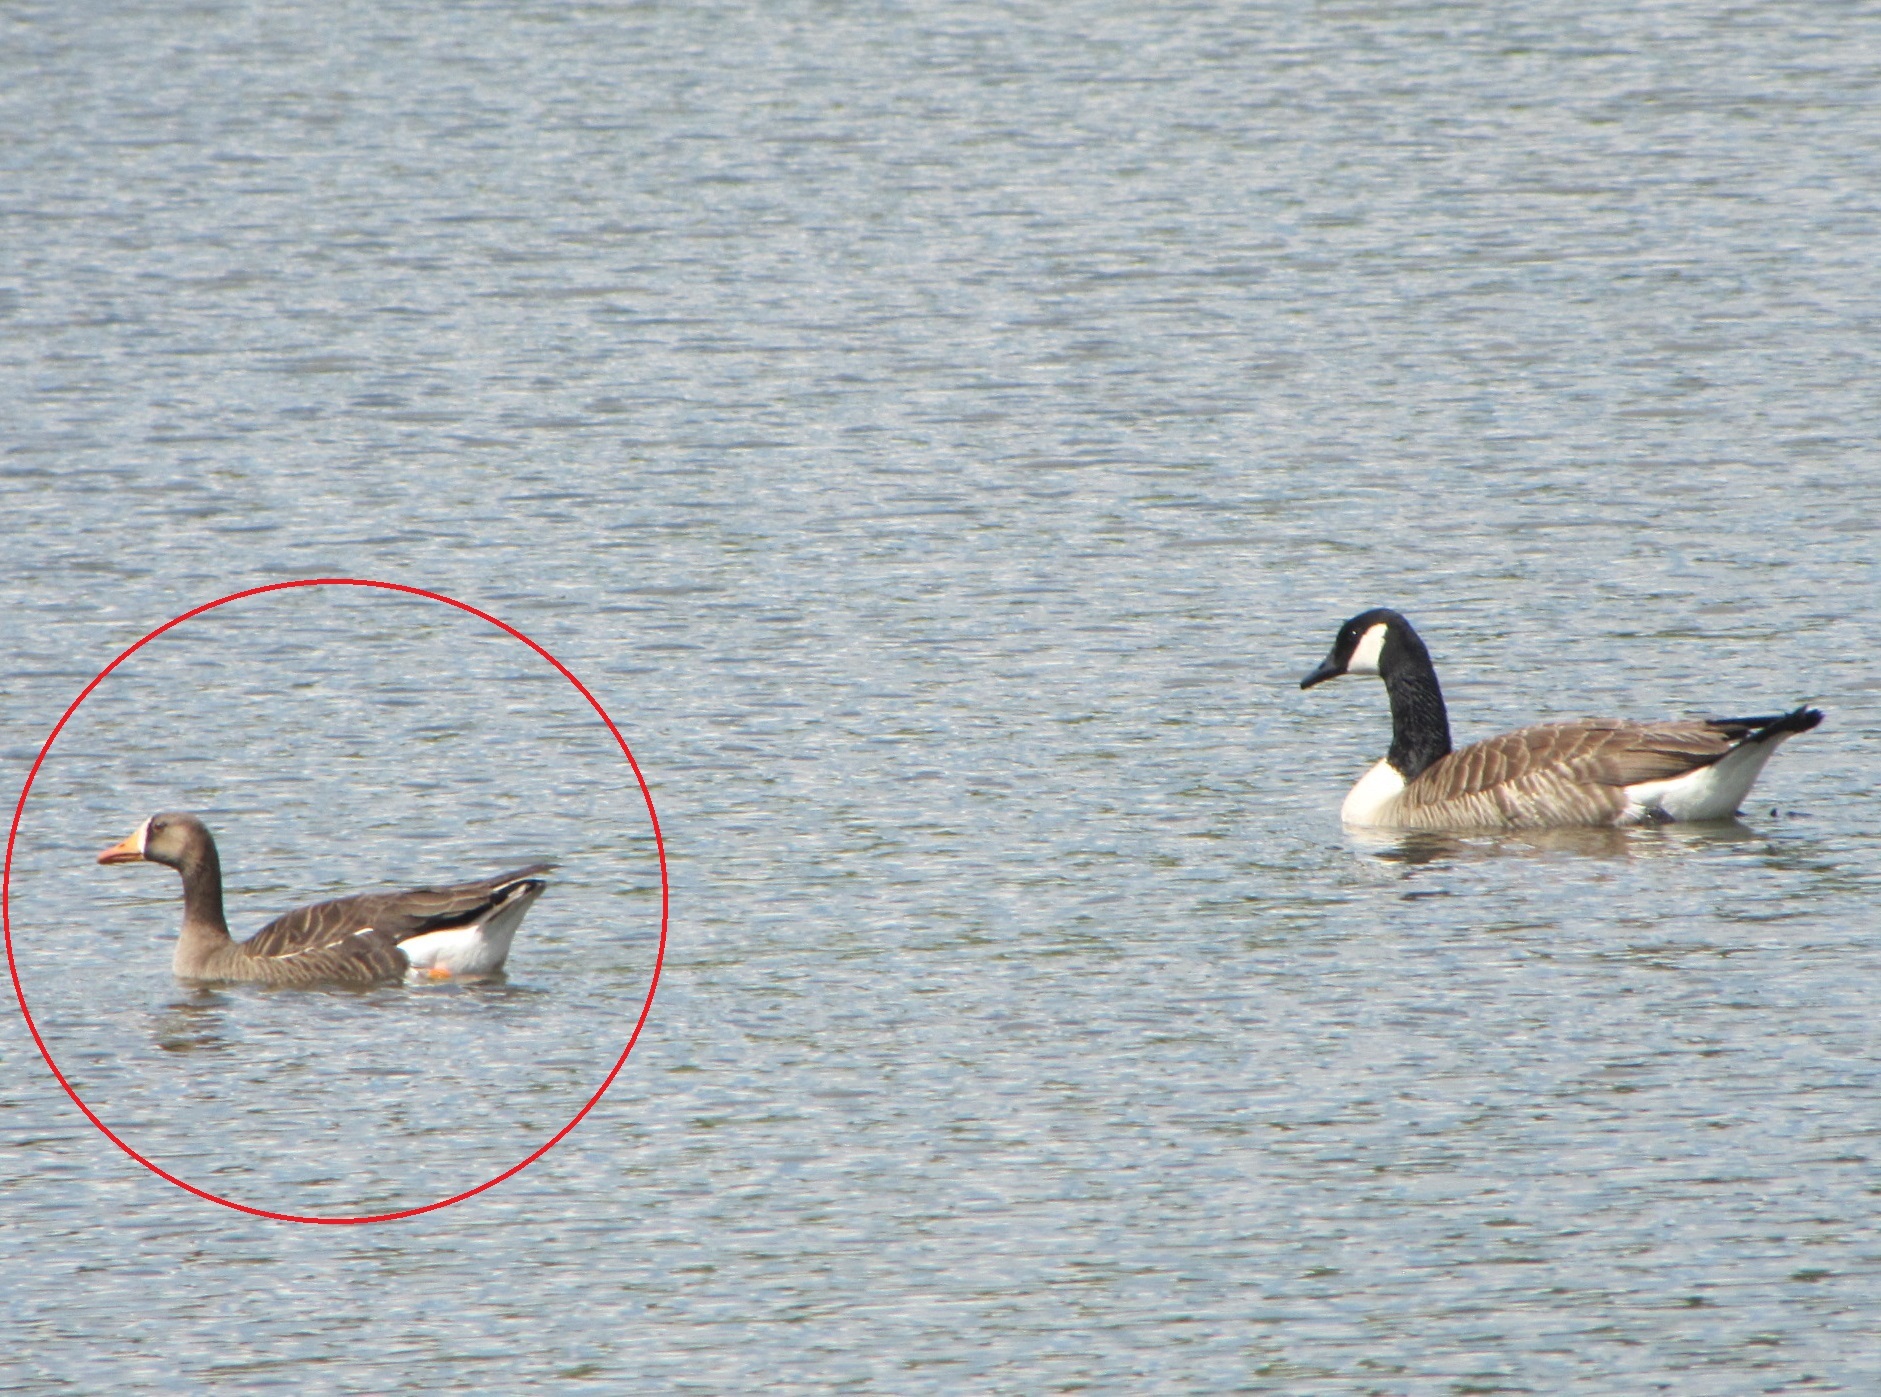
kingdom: Animalia
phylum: Chordata
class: Aves
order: Anseriformes
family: Anatidae
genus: Anser
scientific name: Anser albifrons
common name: Greater white-fronted goose
